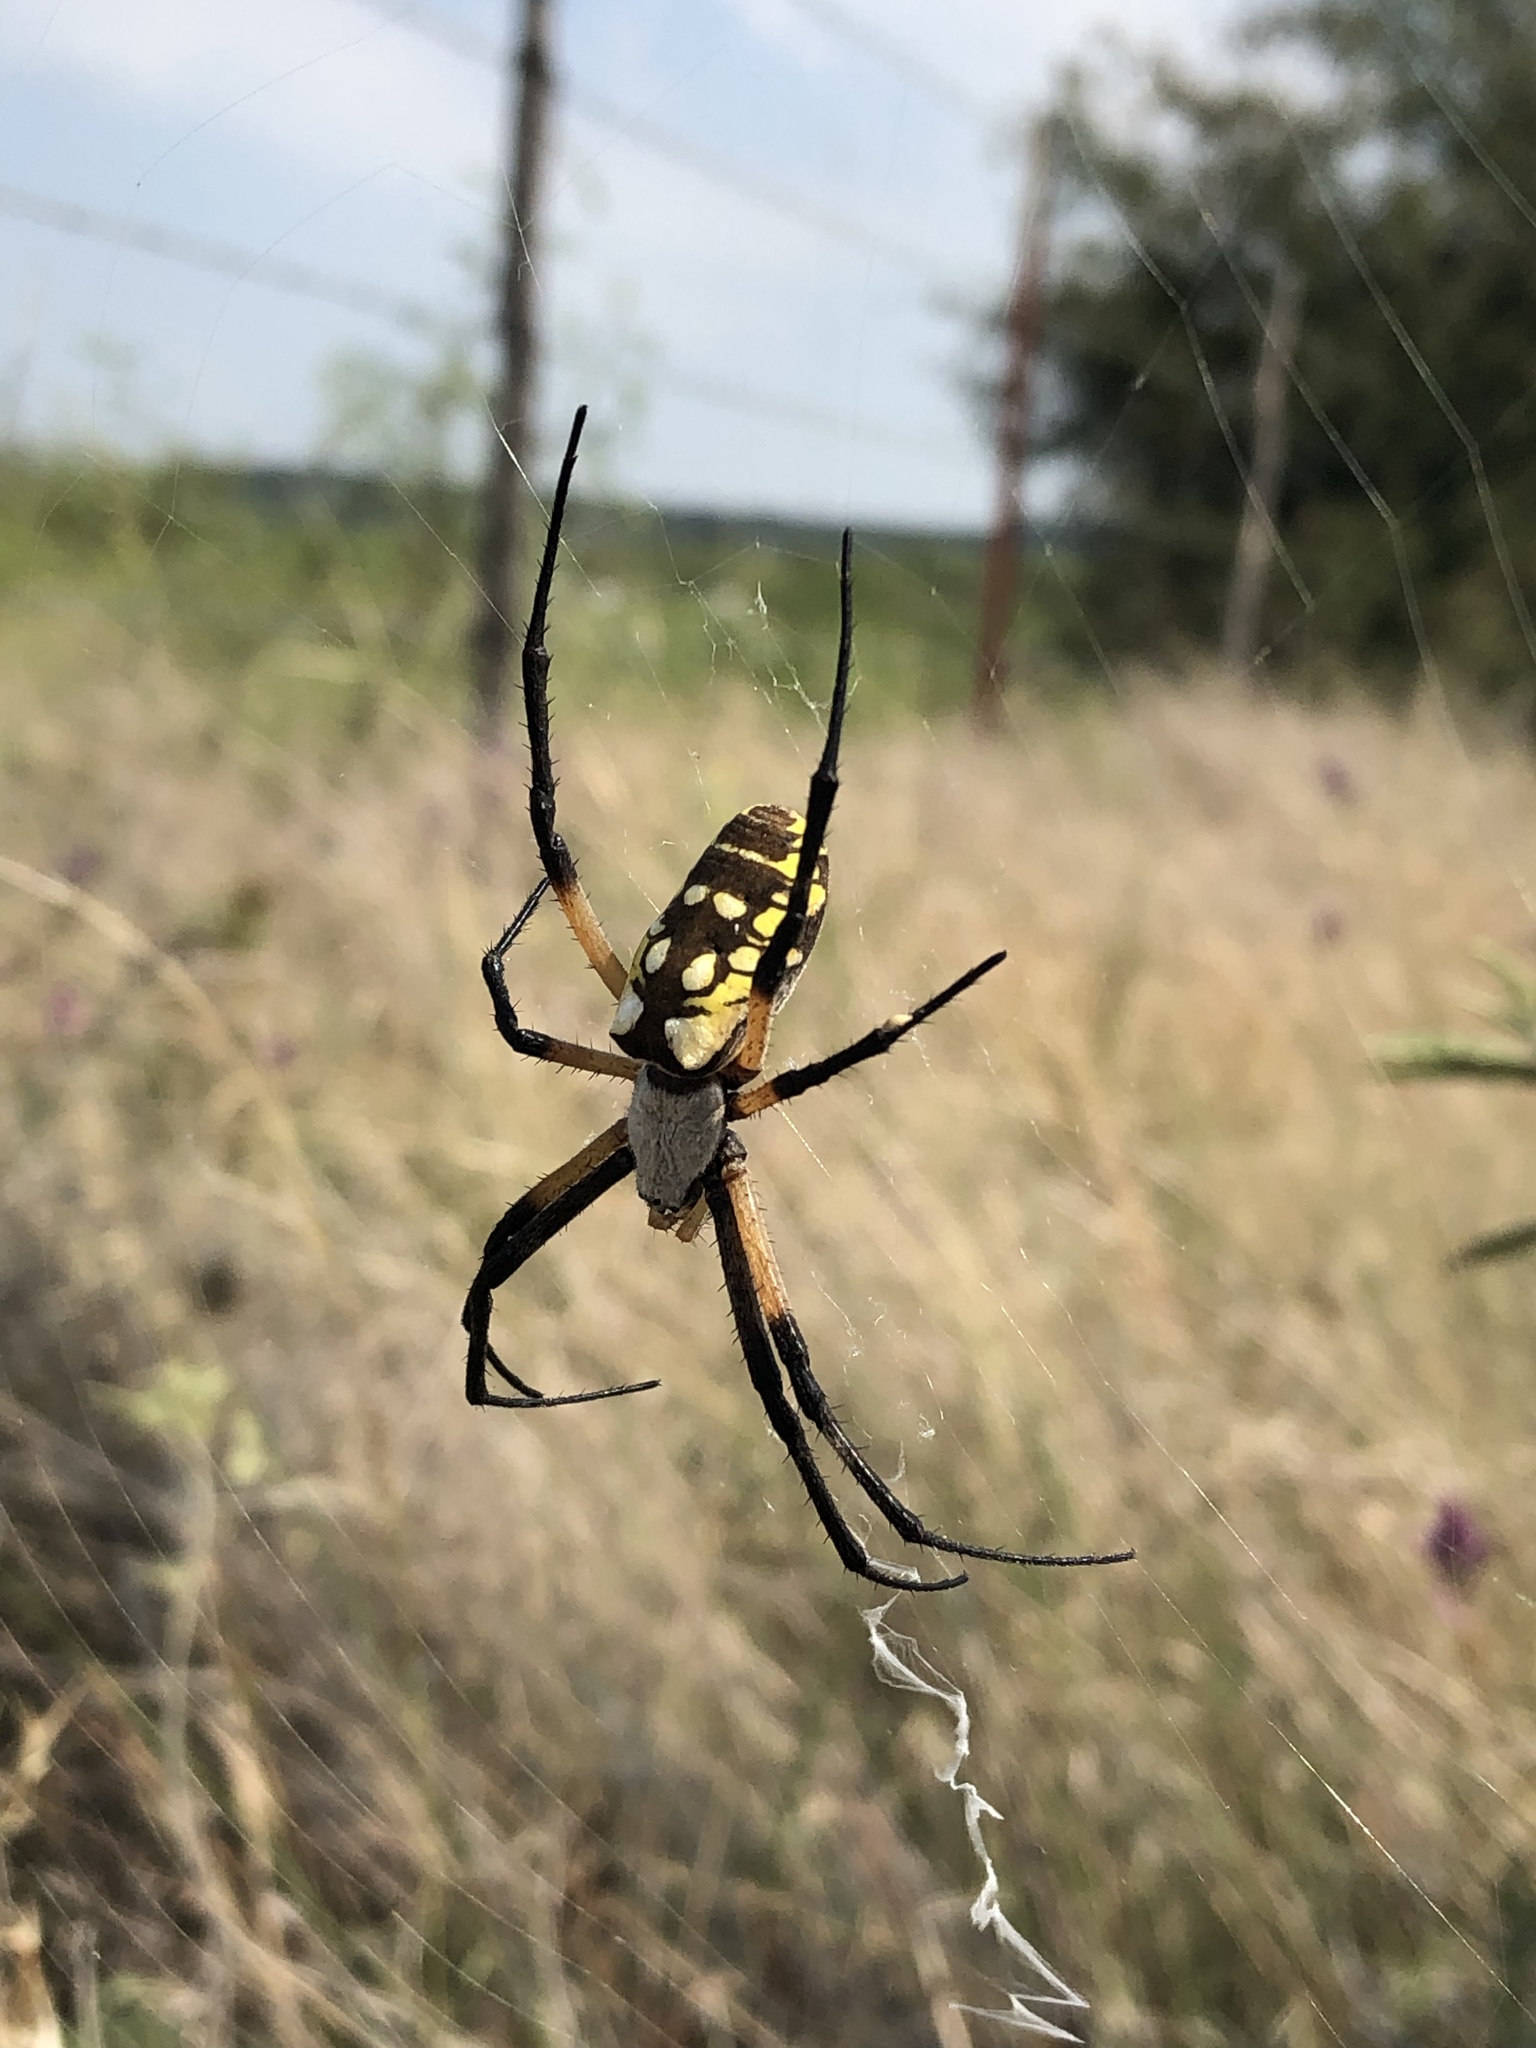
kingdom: Animalia
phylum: Arthropoda
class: Arachnida
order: Araneae
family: Araneidae
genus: Argiope
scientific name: Argiope aurantia
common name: Orb weavers
